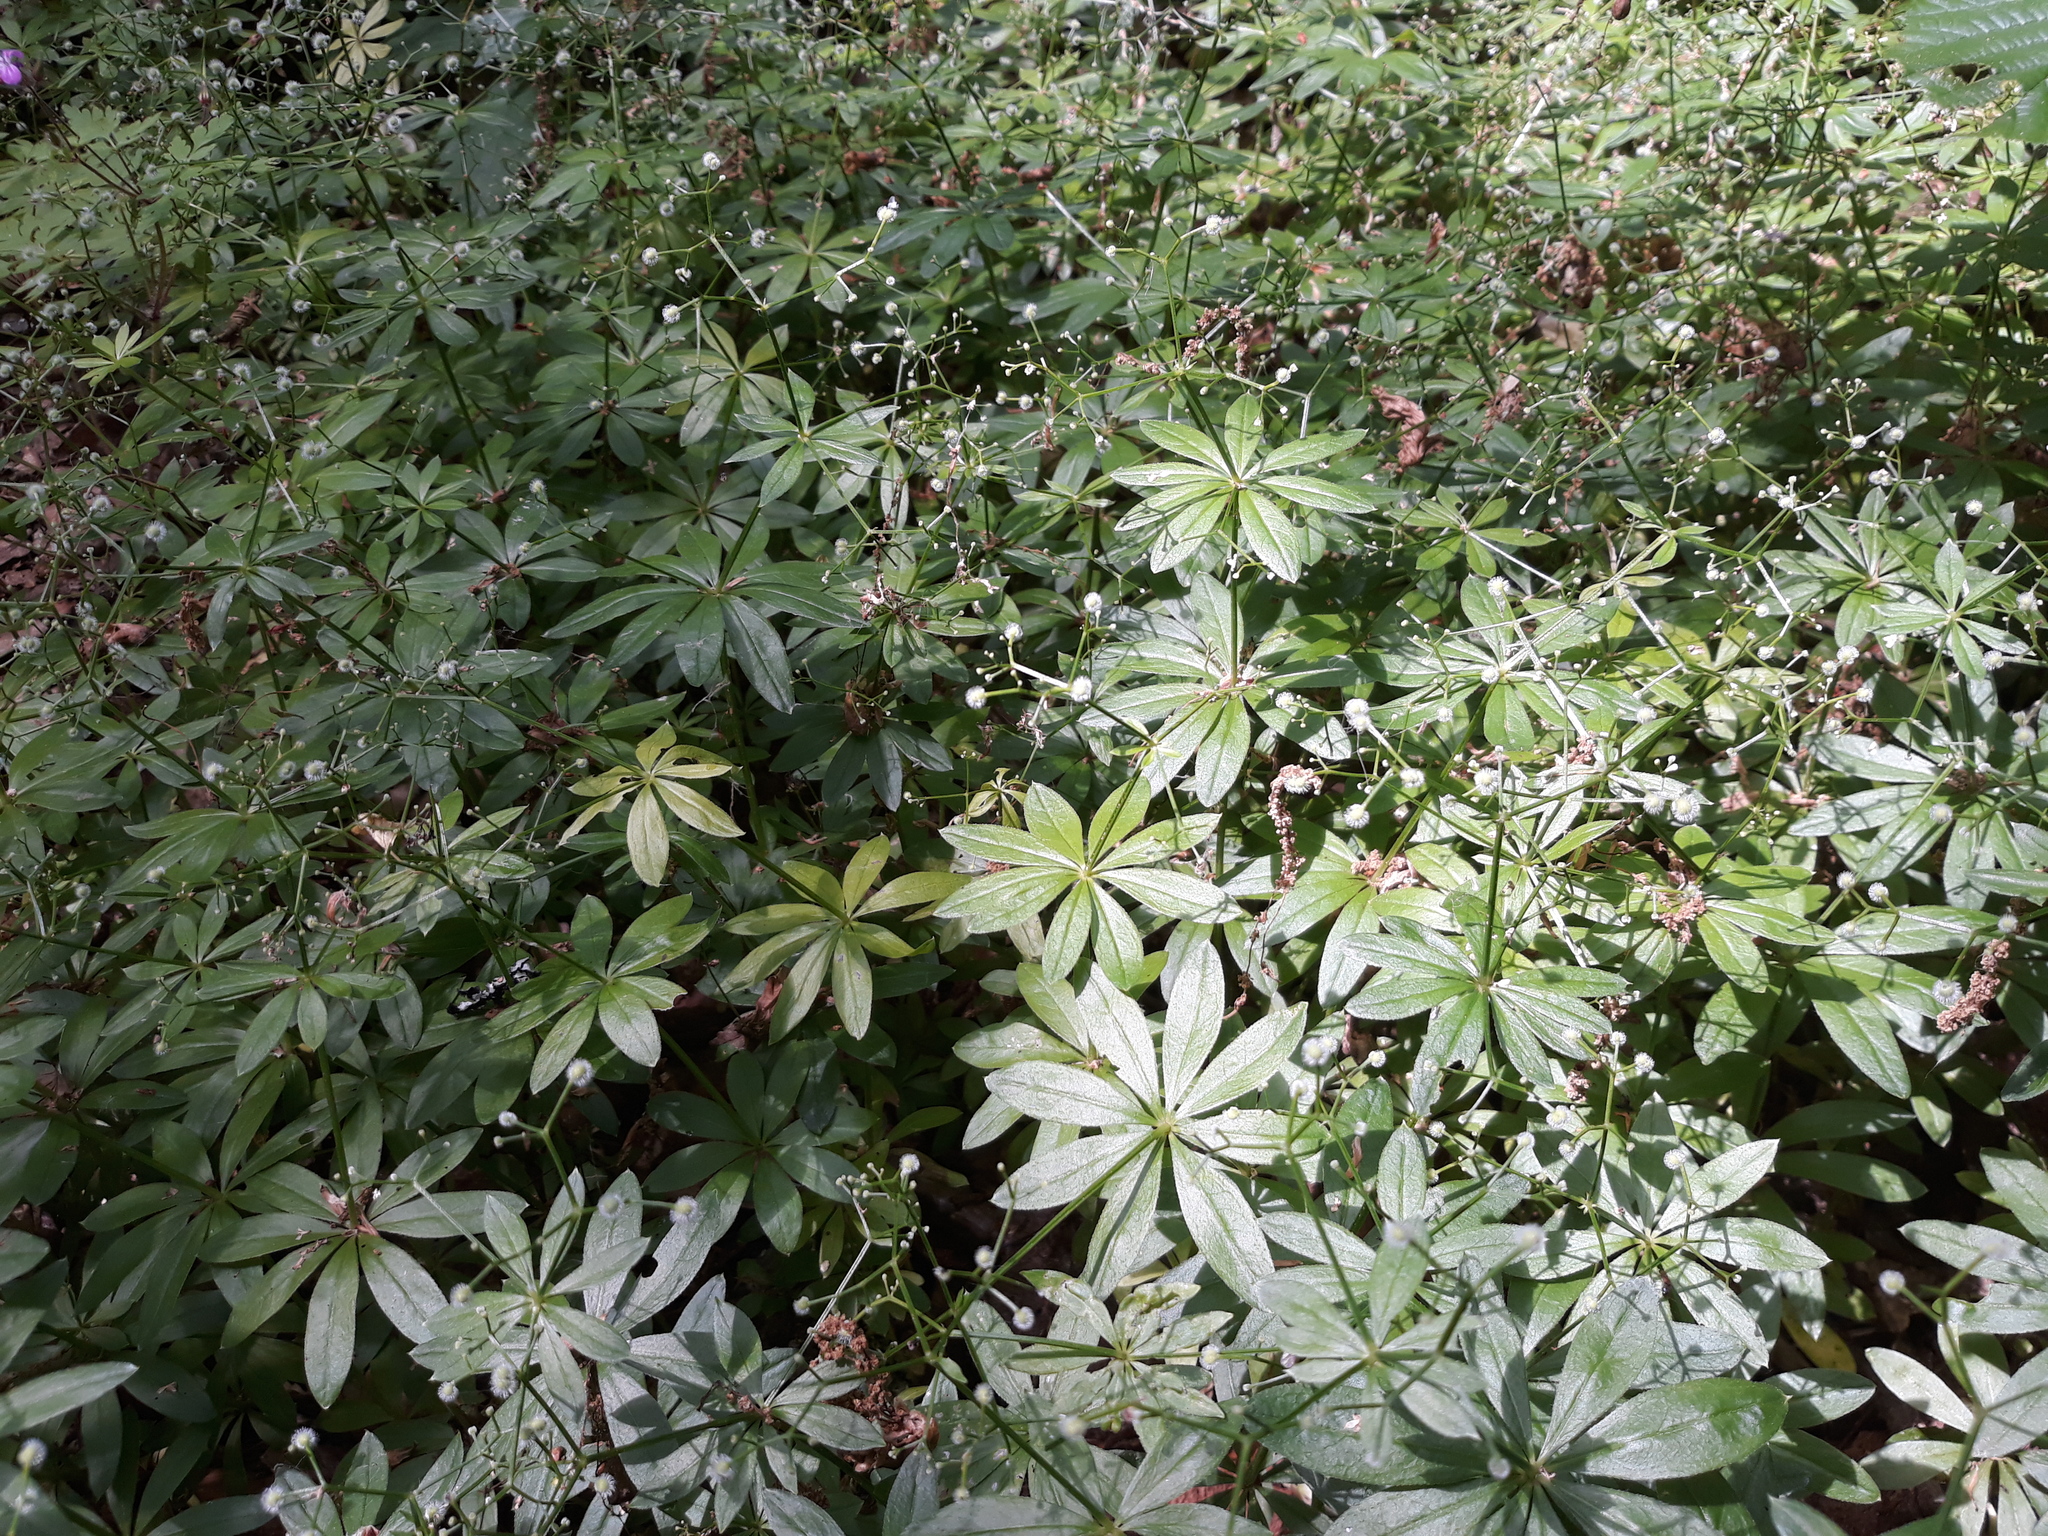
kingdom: Plantae
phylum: Tracheophyta
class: Magnoliopsida
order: Gentianales
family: Rubiaceae
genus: Galium
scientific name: Galium odoratum
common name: Sweet woodruff
